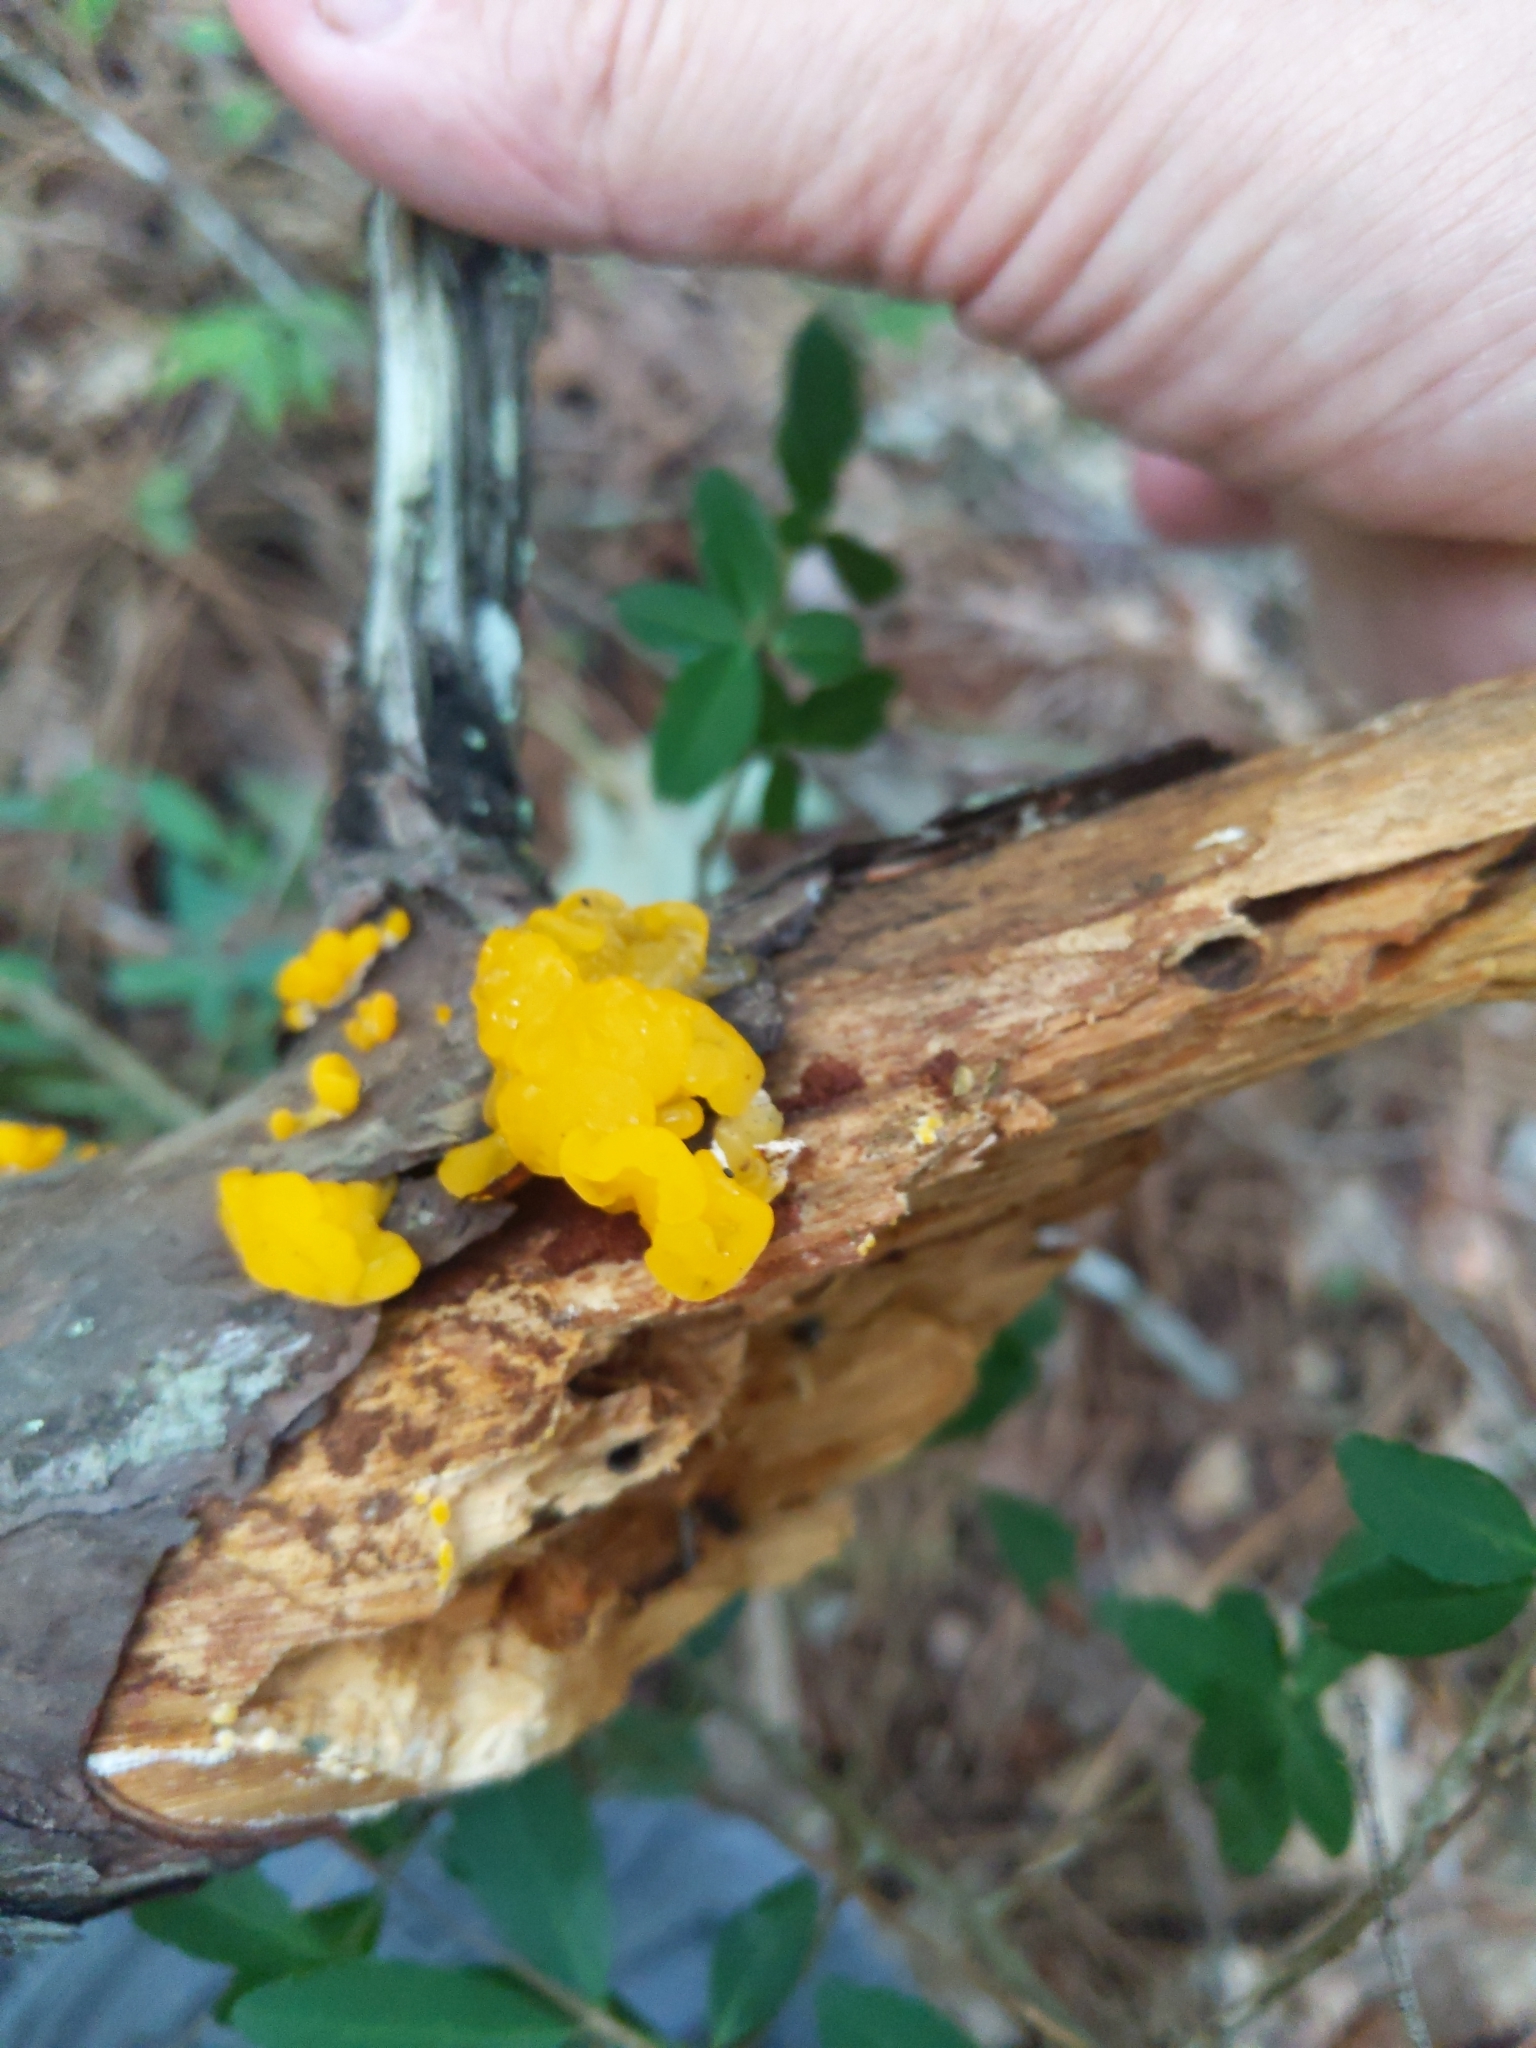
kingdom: Fungi
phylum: Basidiomycota
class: Tremellomycetes
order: Tremellales
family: Tremellaceae
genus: Tremella
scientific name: Tremella mesenterica
